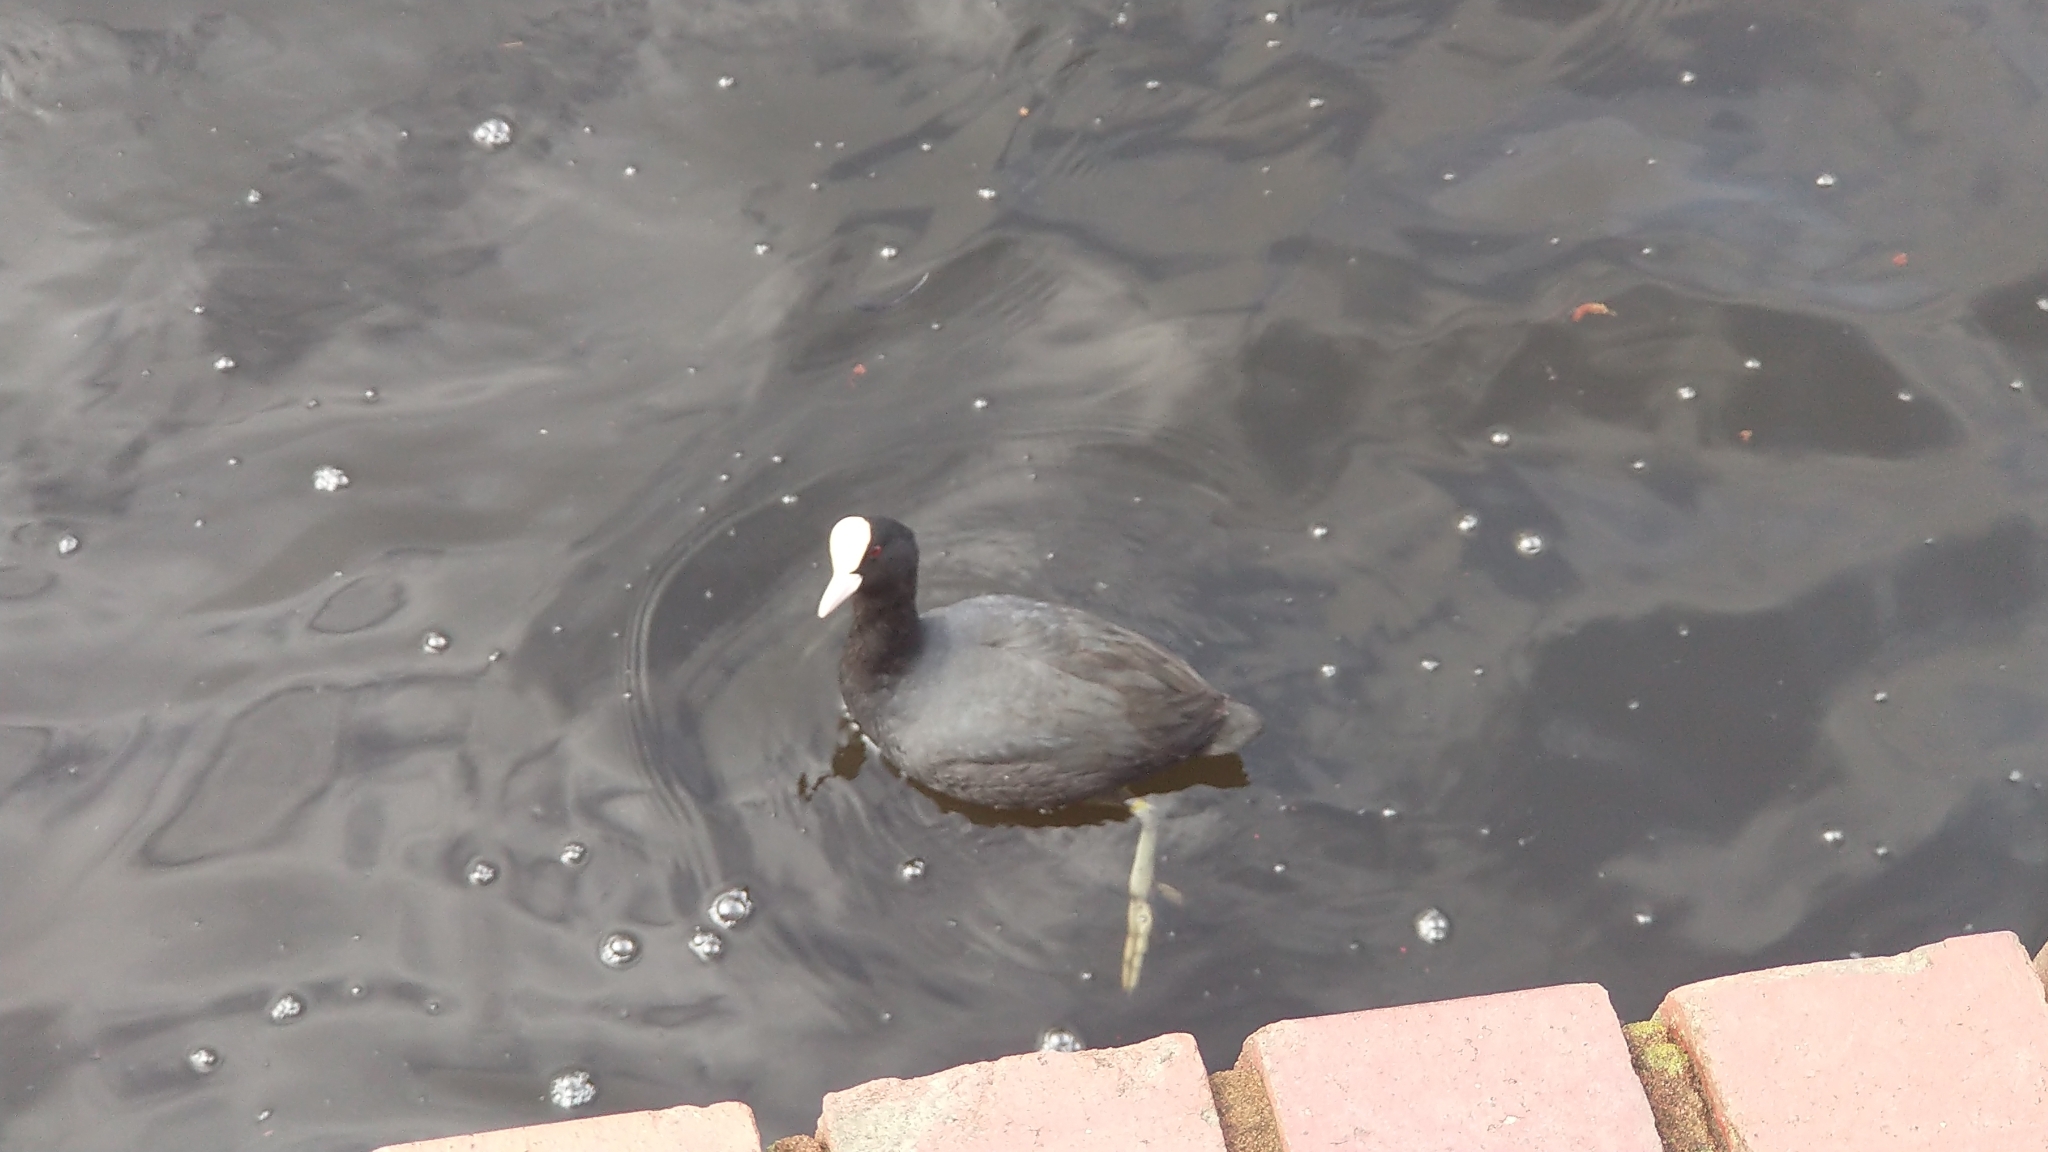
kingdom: Animalia
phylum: Chordata
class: Aves
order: Gruiformes
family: Rallidae
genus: Fulica
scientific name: Fulica atra
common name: Eurasian coot
